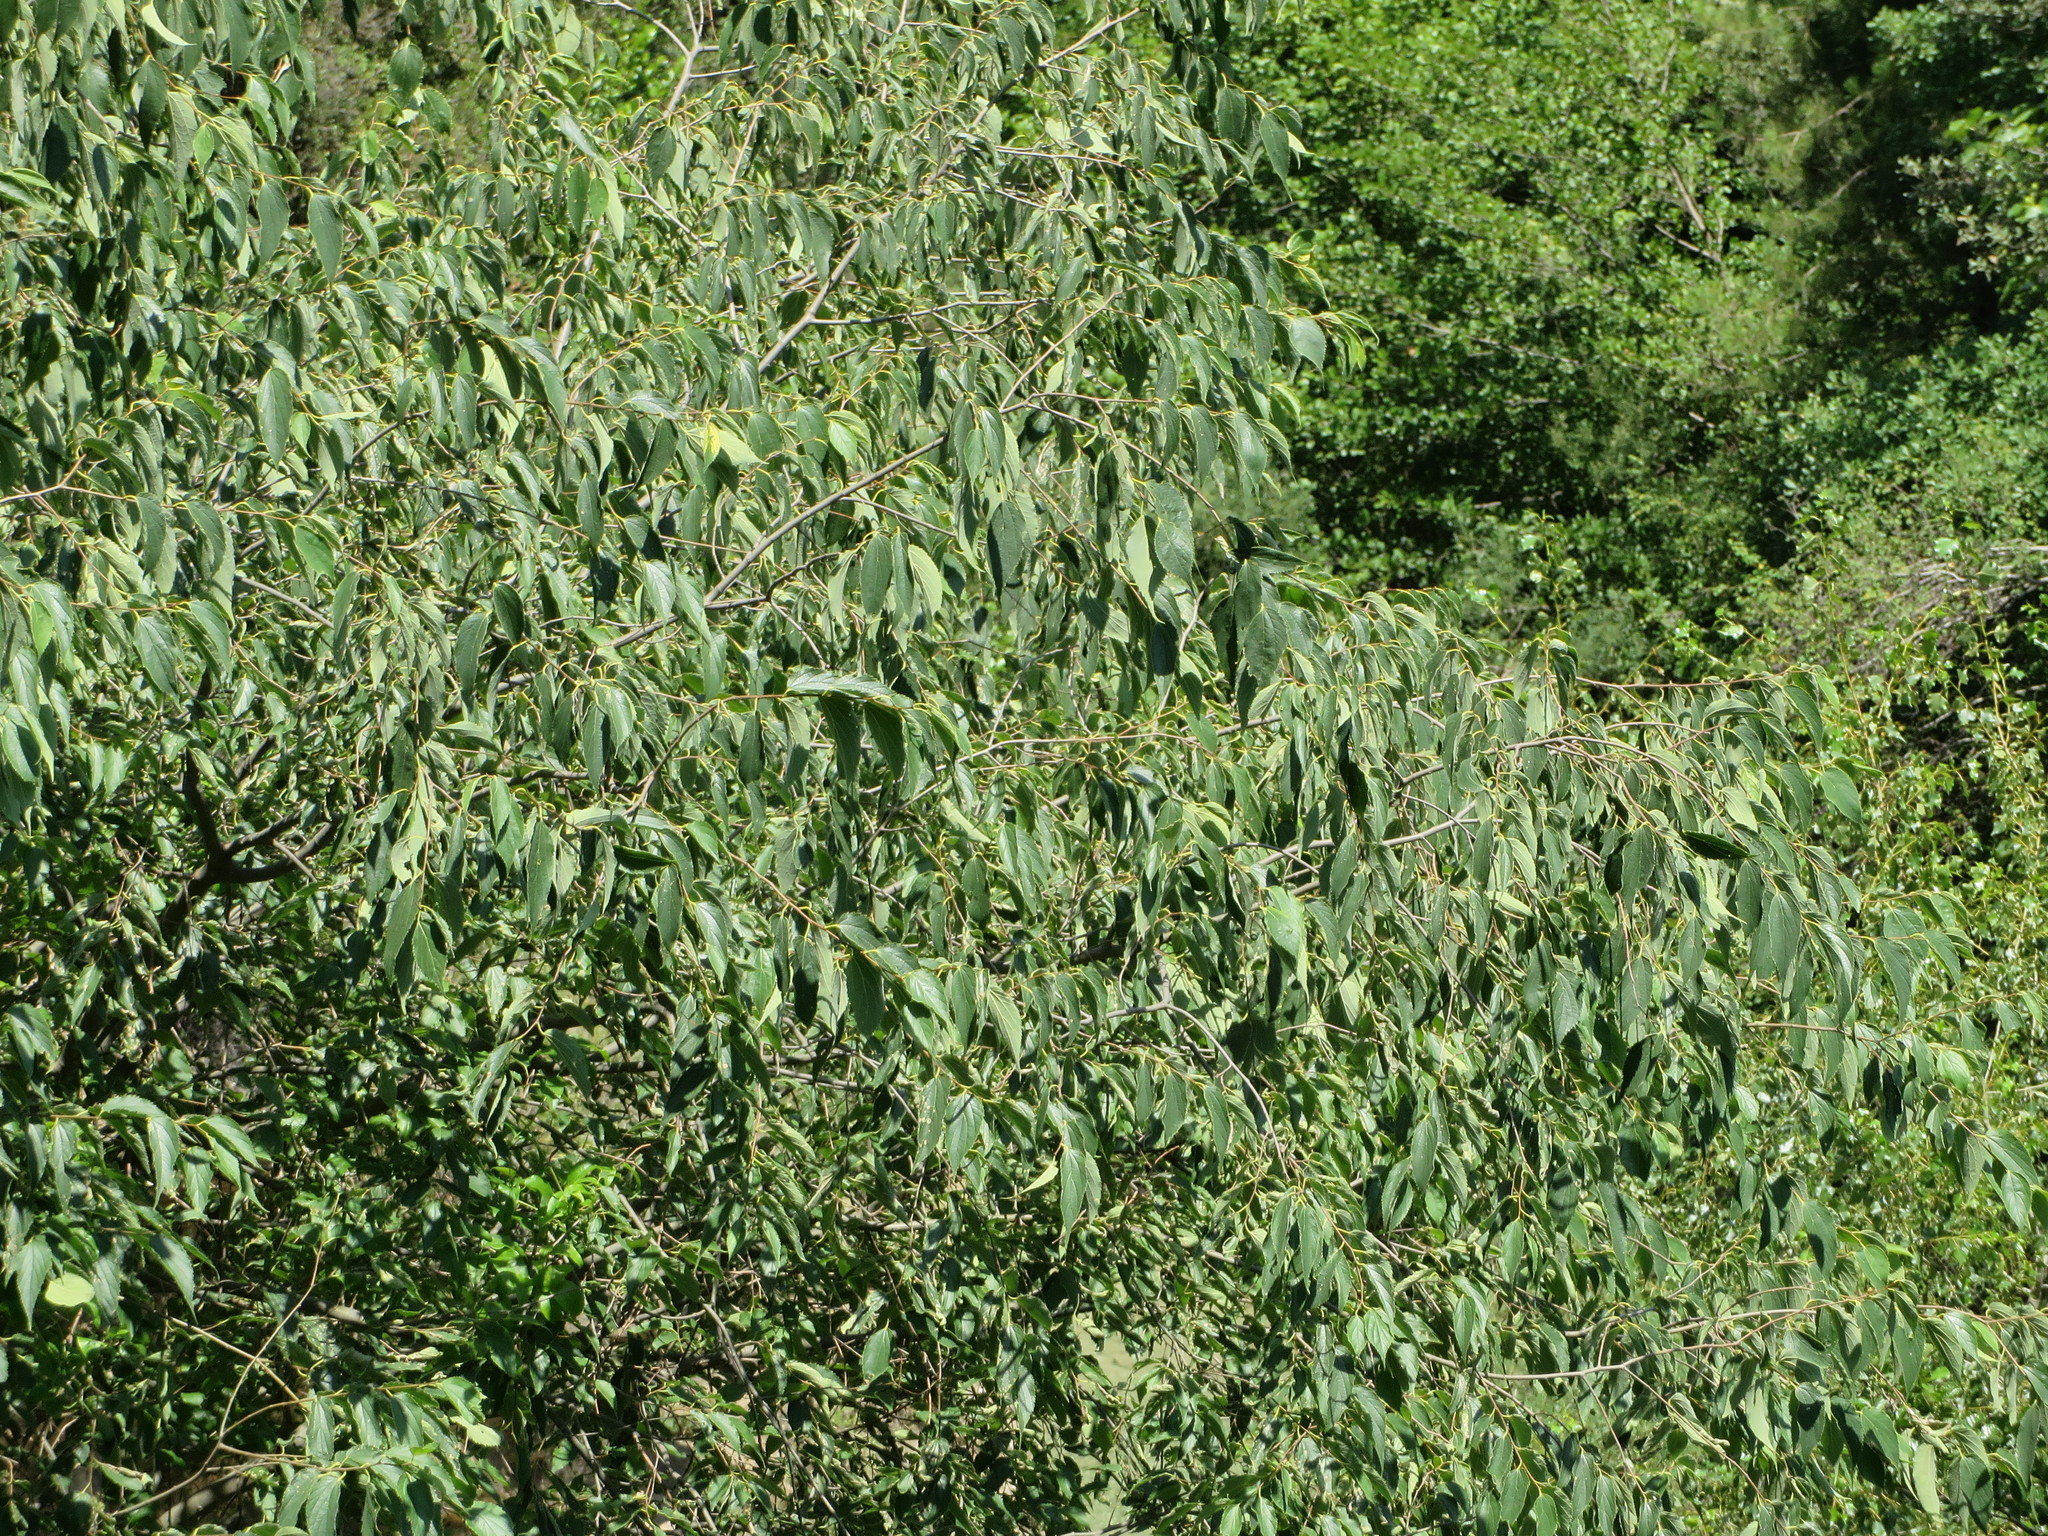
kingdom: Plantae
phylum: Tracheophyta
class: Magnoliopsida
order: Rosales
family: Cannabaceae
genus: Celtis
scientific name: Celtis australis
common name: European hackberry
